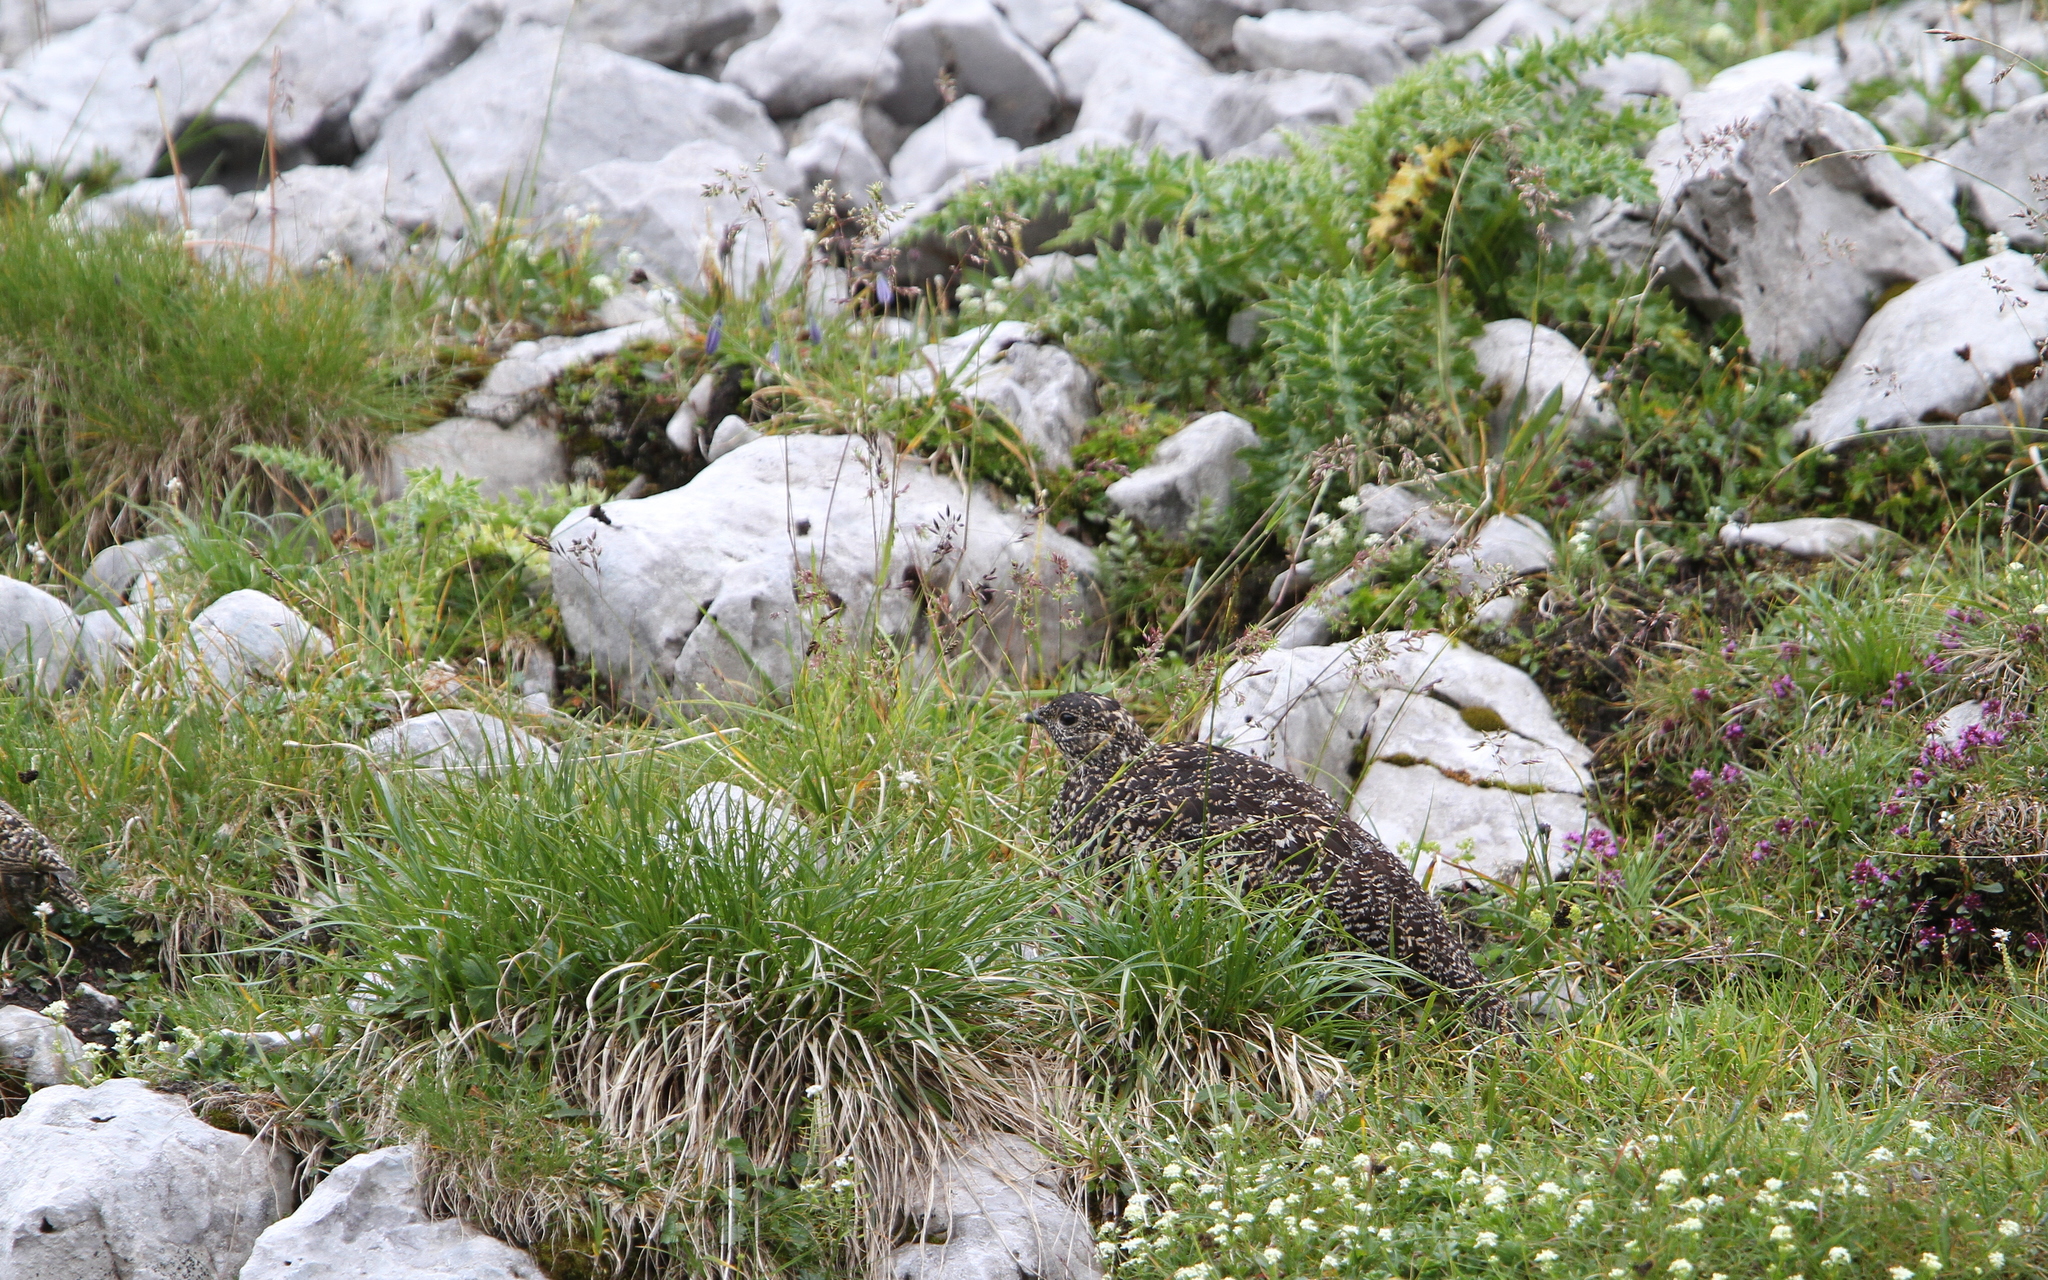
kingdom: Animalia
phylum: Chordata
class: Aves
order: Galliformes
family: Phasianidae
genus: Lagopus
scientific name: Lagopus muta
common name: Rock ptarmigan
